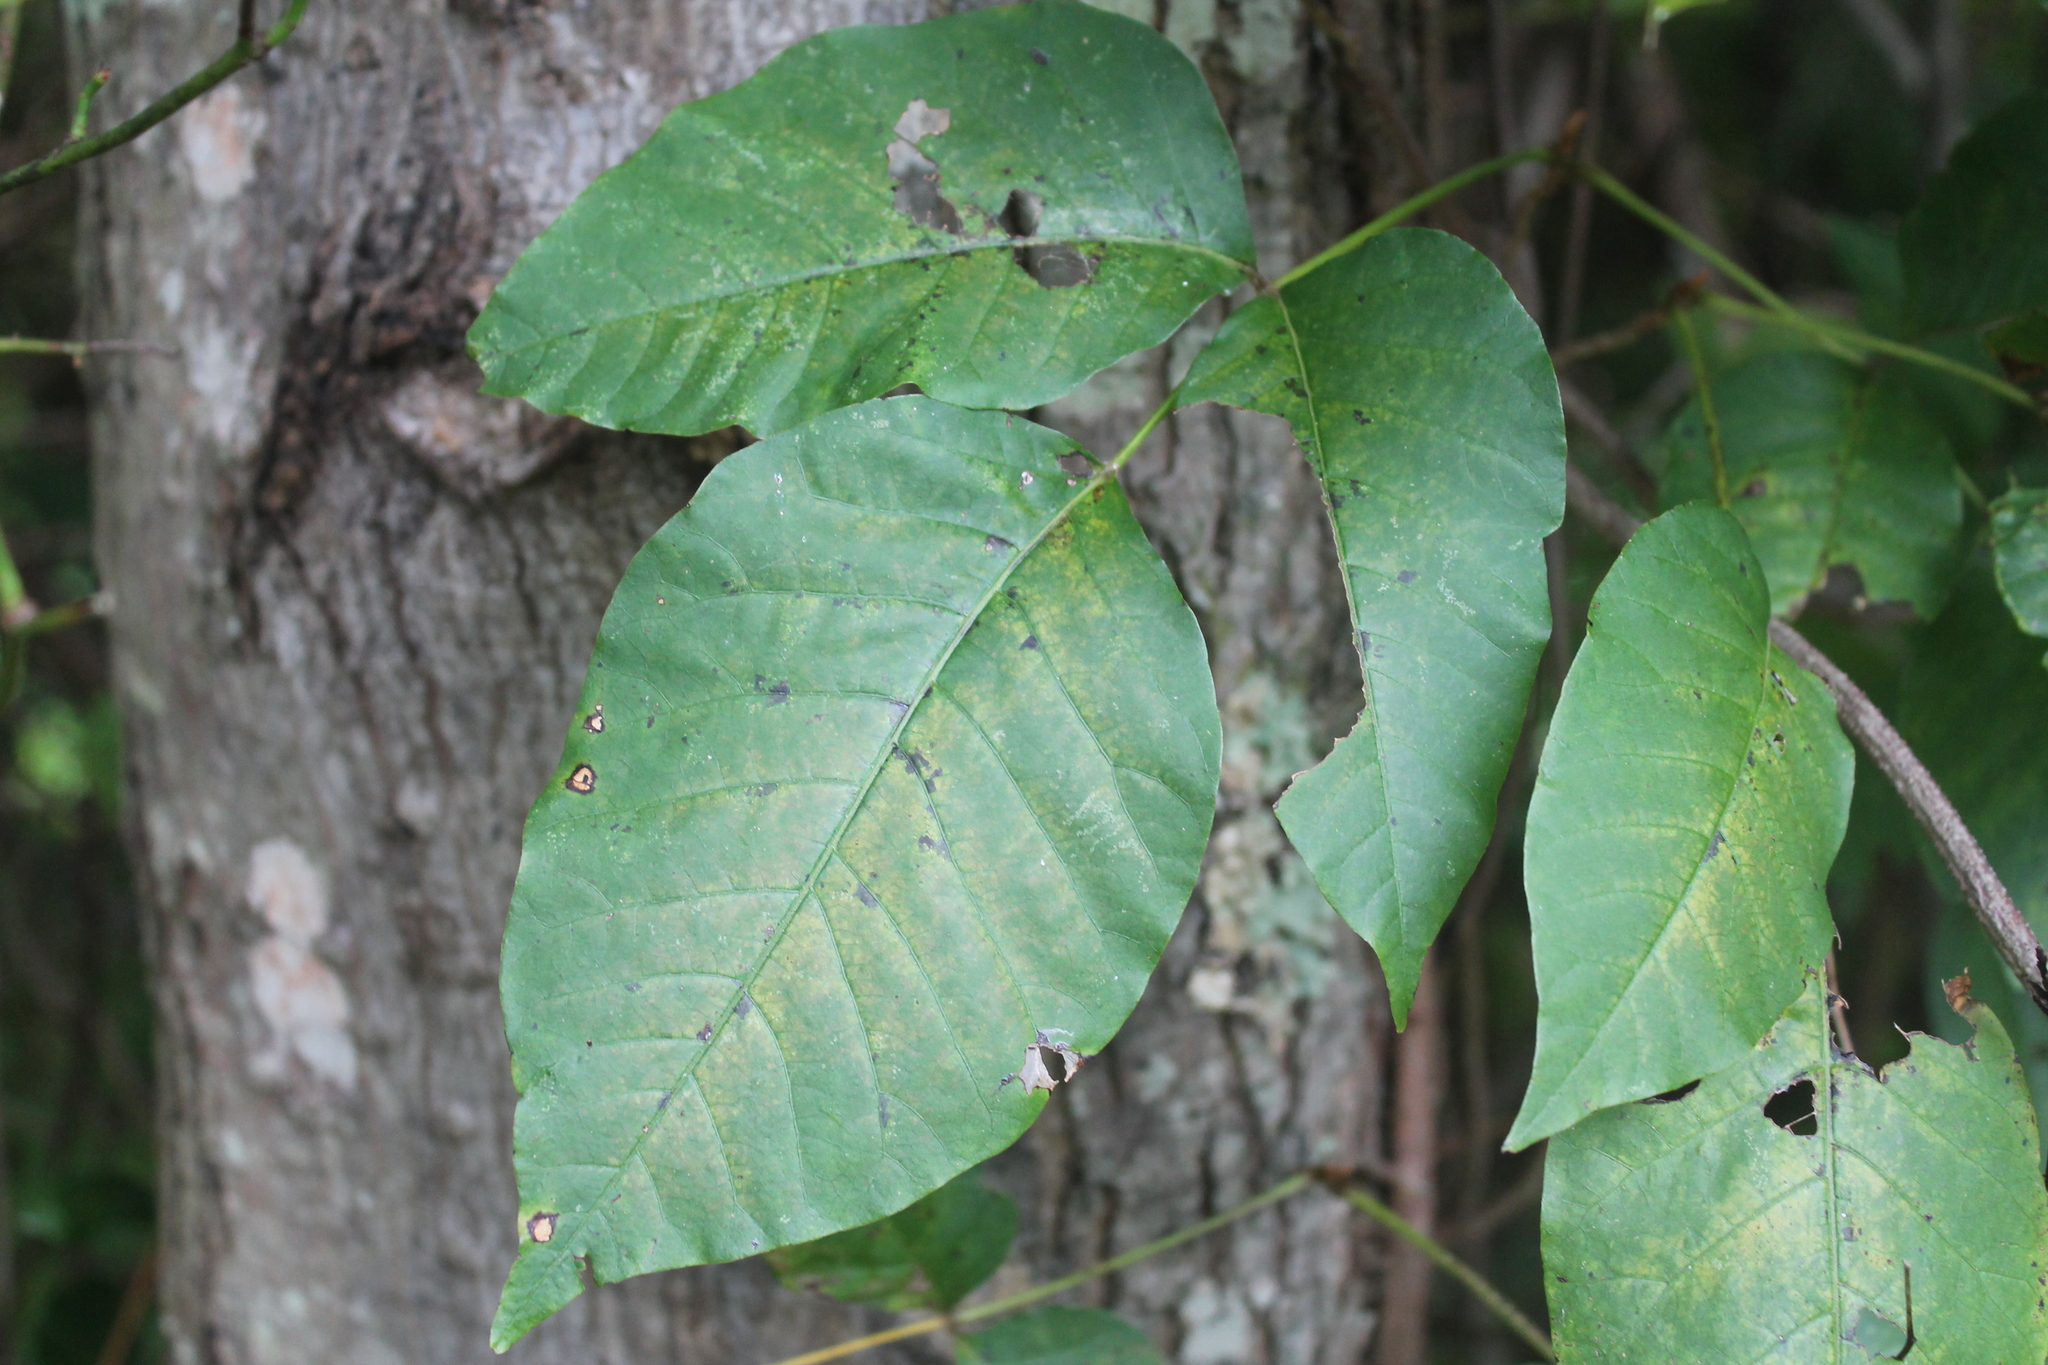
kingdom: Plantae
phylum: Tracheophyta
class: Magnoliopsida
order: Sapindales
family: Anacardiaceae
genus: Toxicodendron
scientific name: Toxicodendron radicans
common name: Poison ivy
